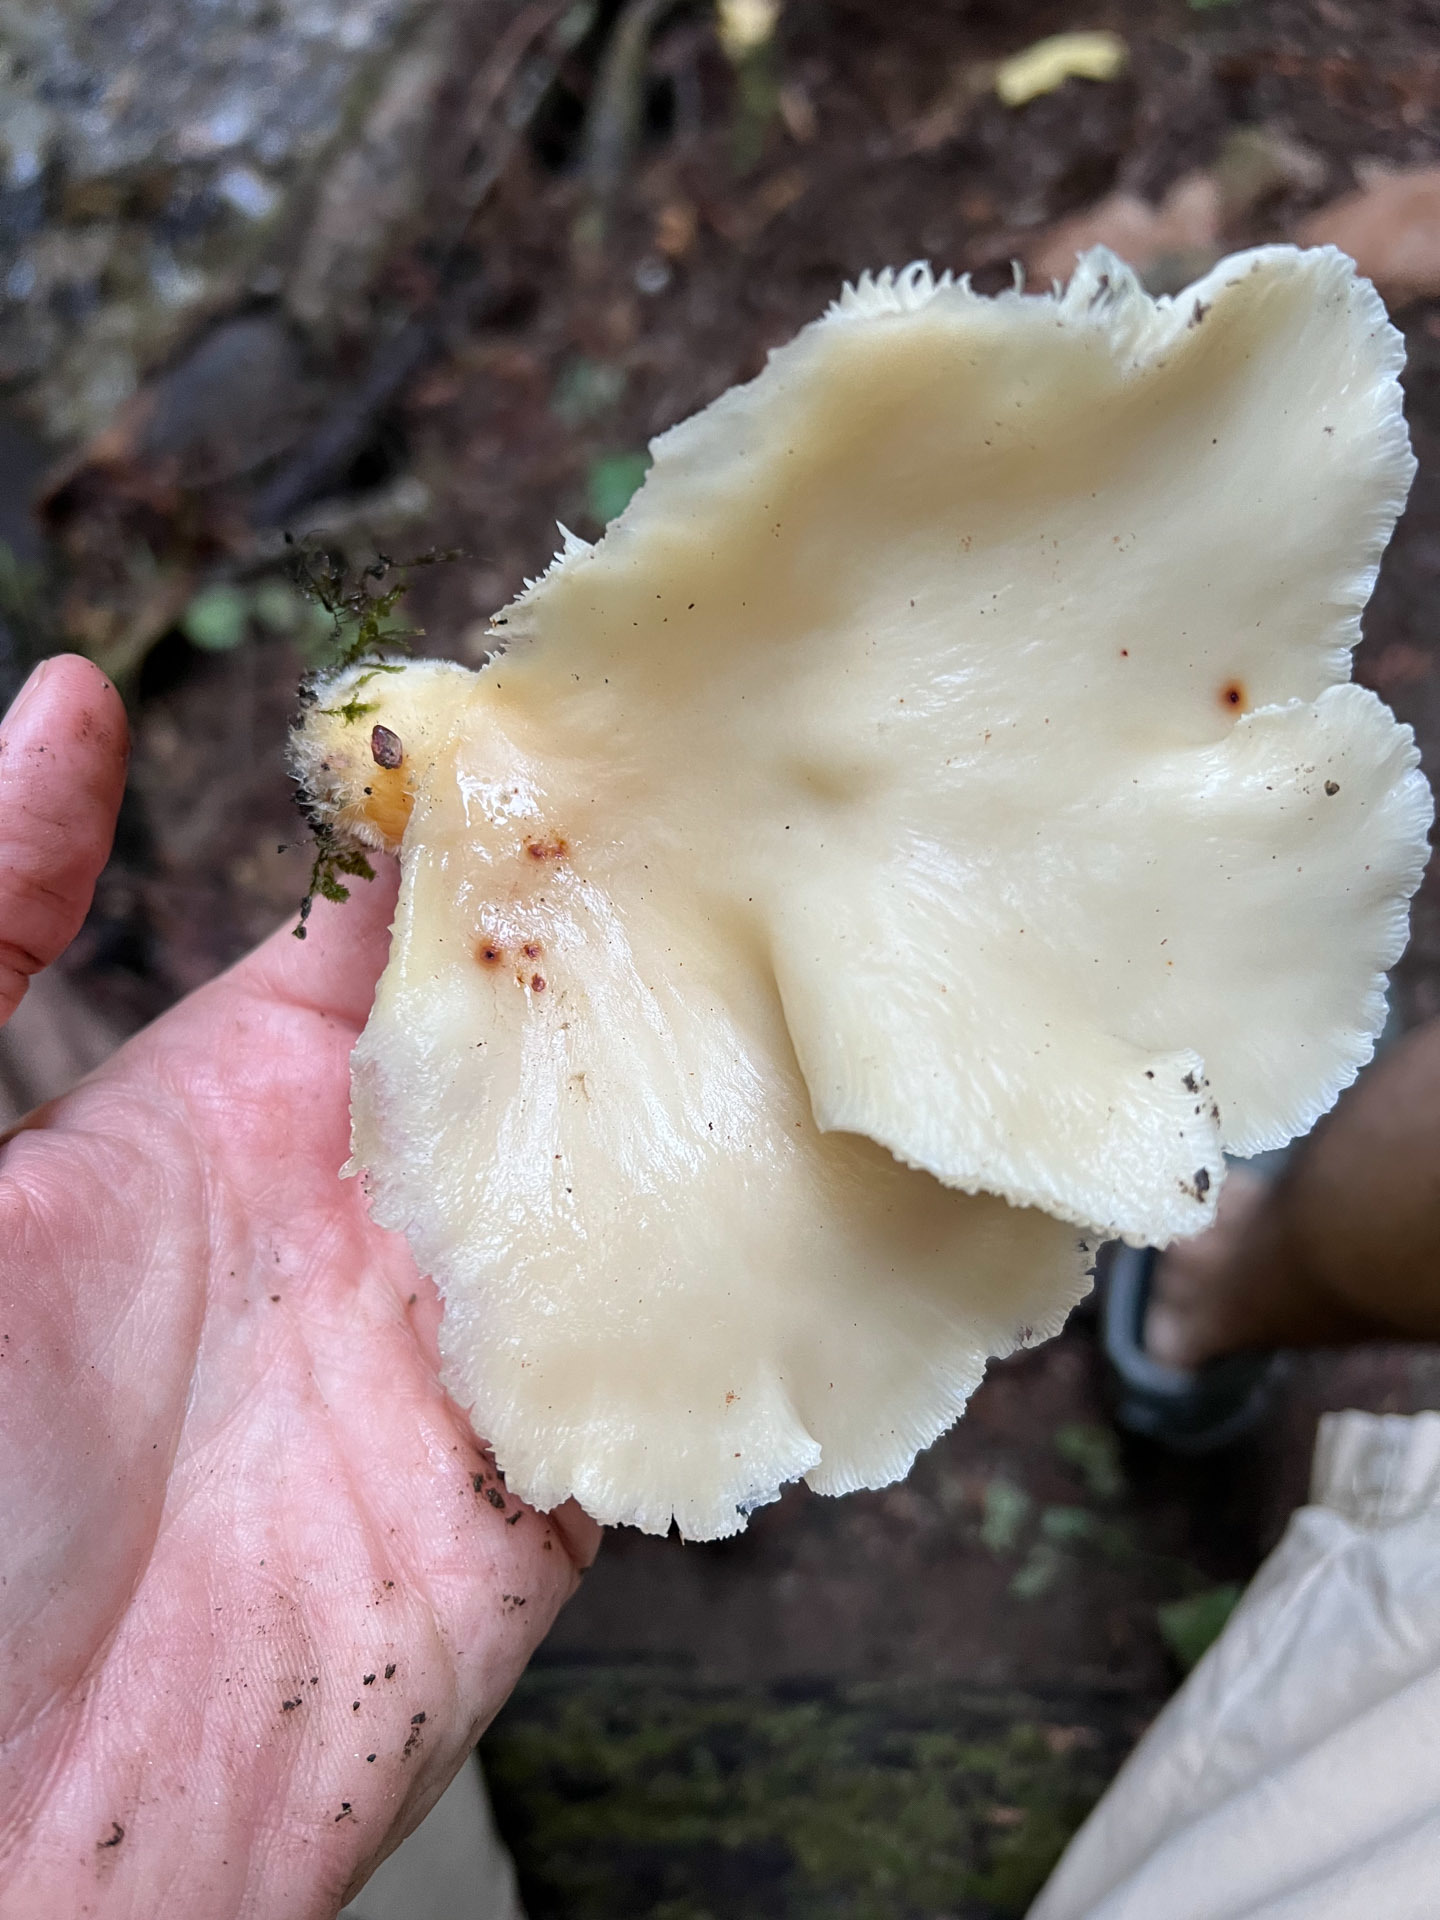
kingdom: Fungi
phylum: Basidiomycota
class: Agaricomycetes
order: Agaricales
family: Pleurotaceae
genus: Pleurotus
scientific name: Pleurotus ostreatus
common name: Oyster mushroom
